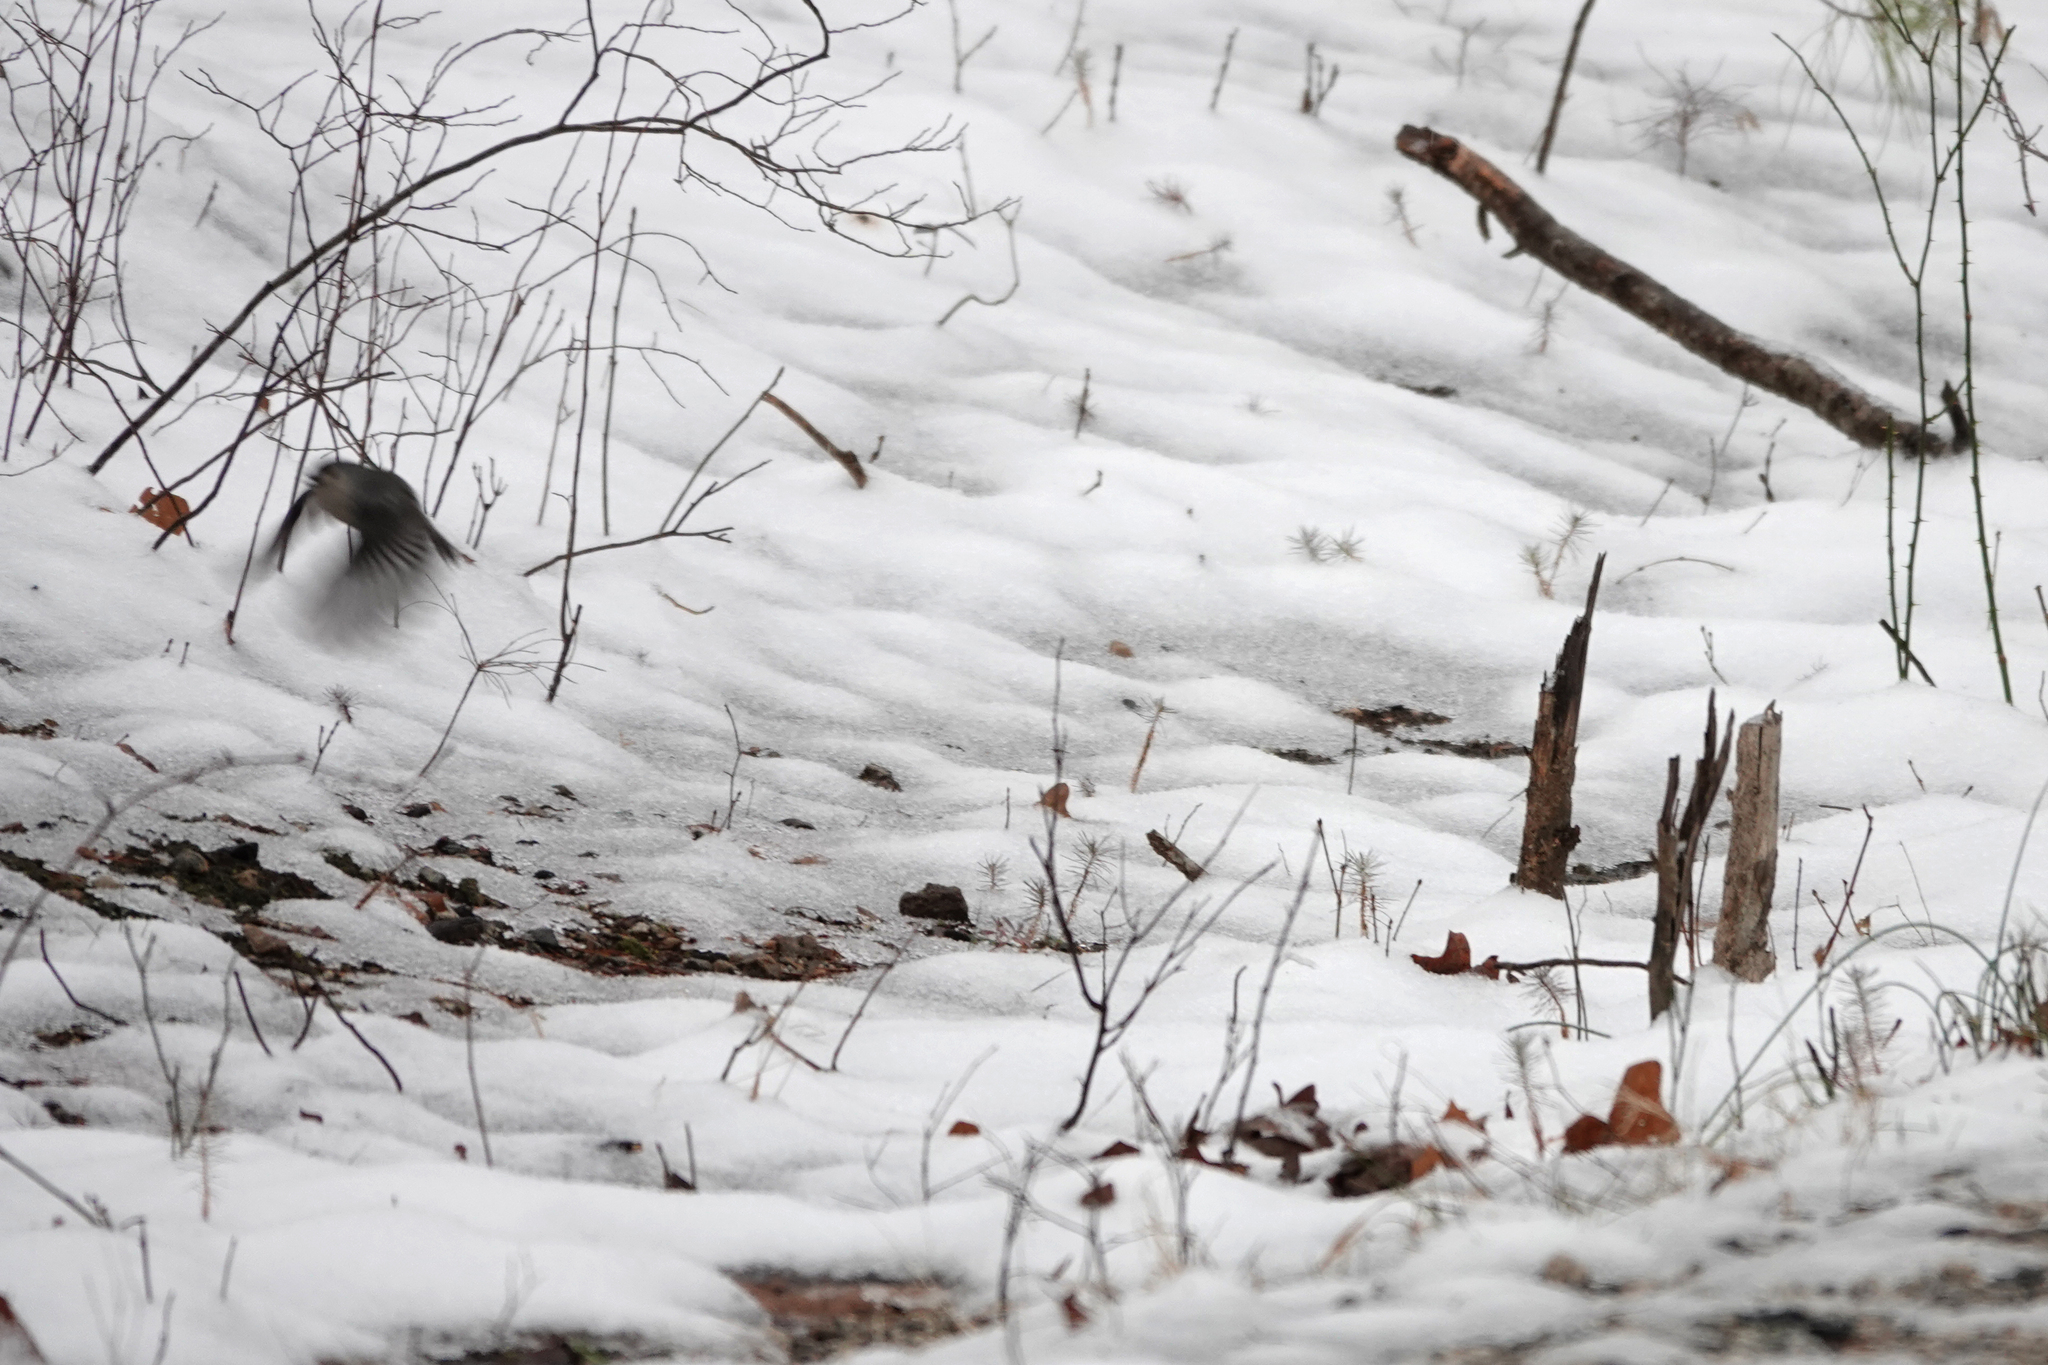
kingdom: Animalia
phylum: Chordata
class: Aves
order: Passeriformes
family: Paridae
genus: Baeolophus
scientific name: Baeolophus bicolor
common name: Tufted titmouse
